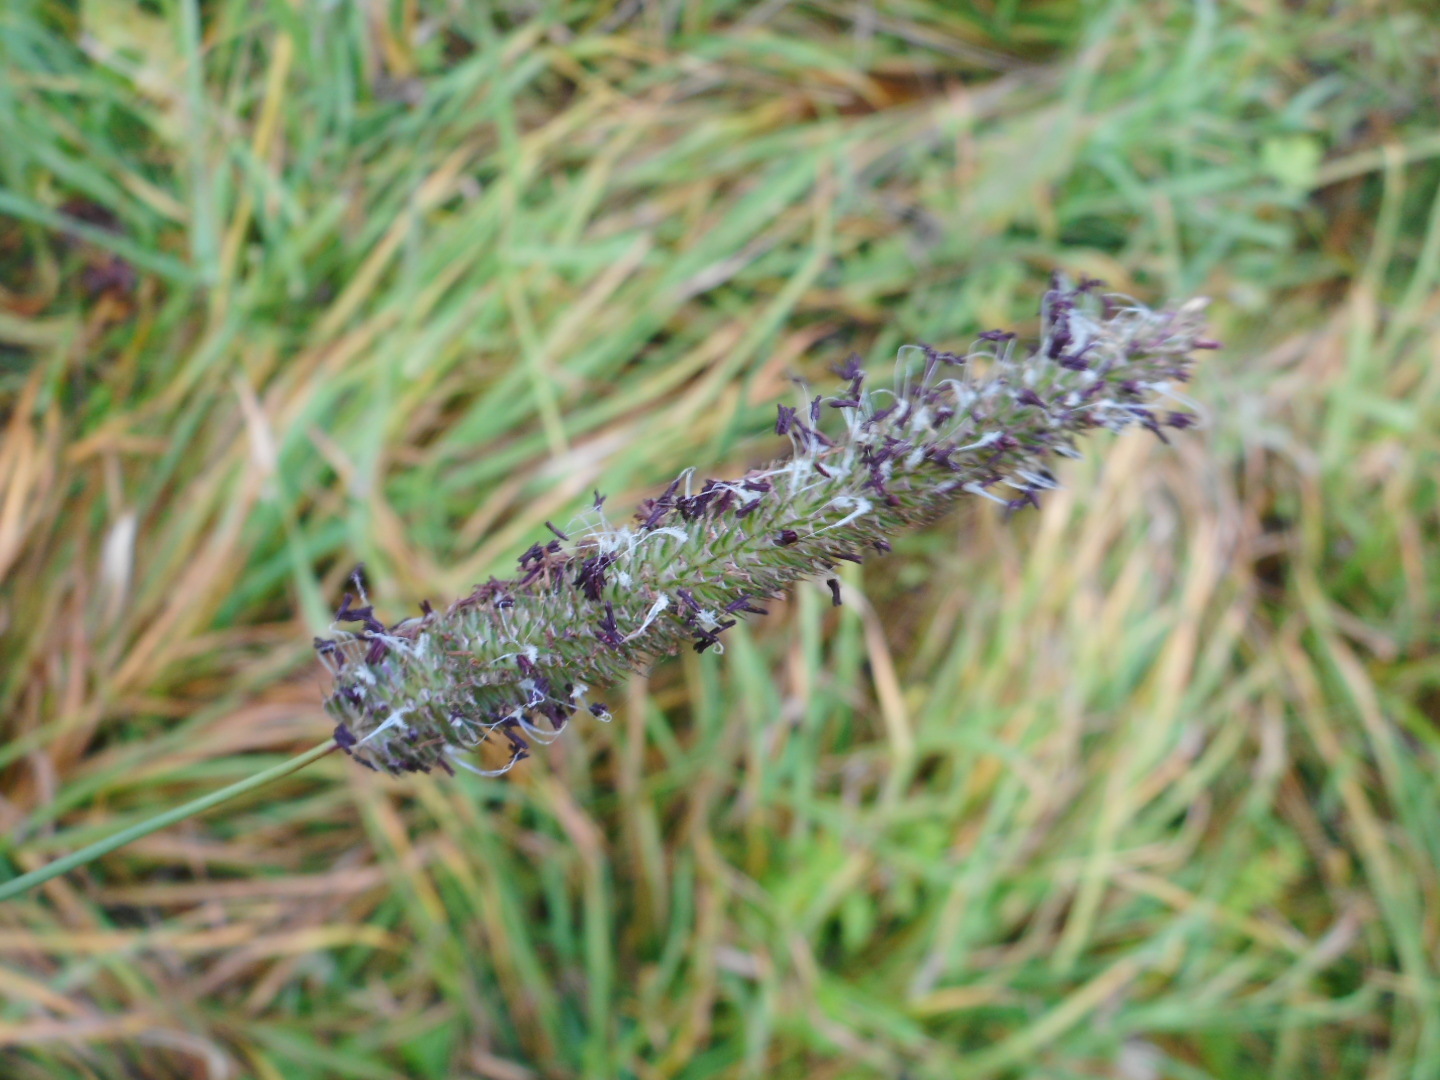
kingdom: Plantae
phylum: Tracheophyta
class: Liliopsida
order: Poales
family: Poaceae
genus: Phleum
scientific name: Phleum pratense
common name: Timothy grass
